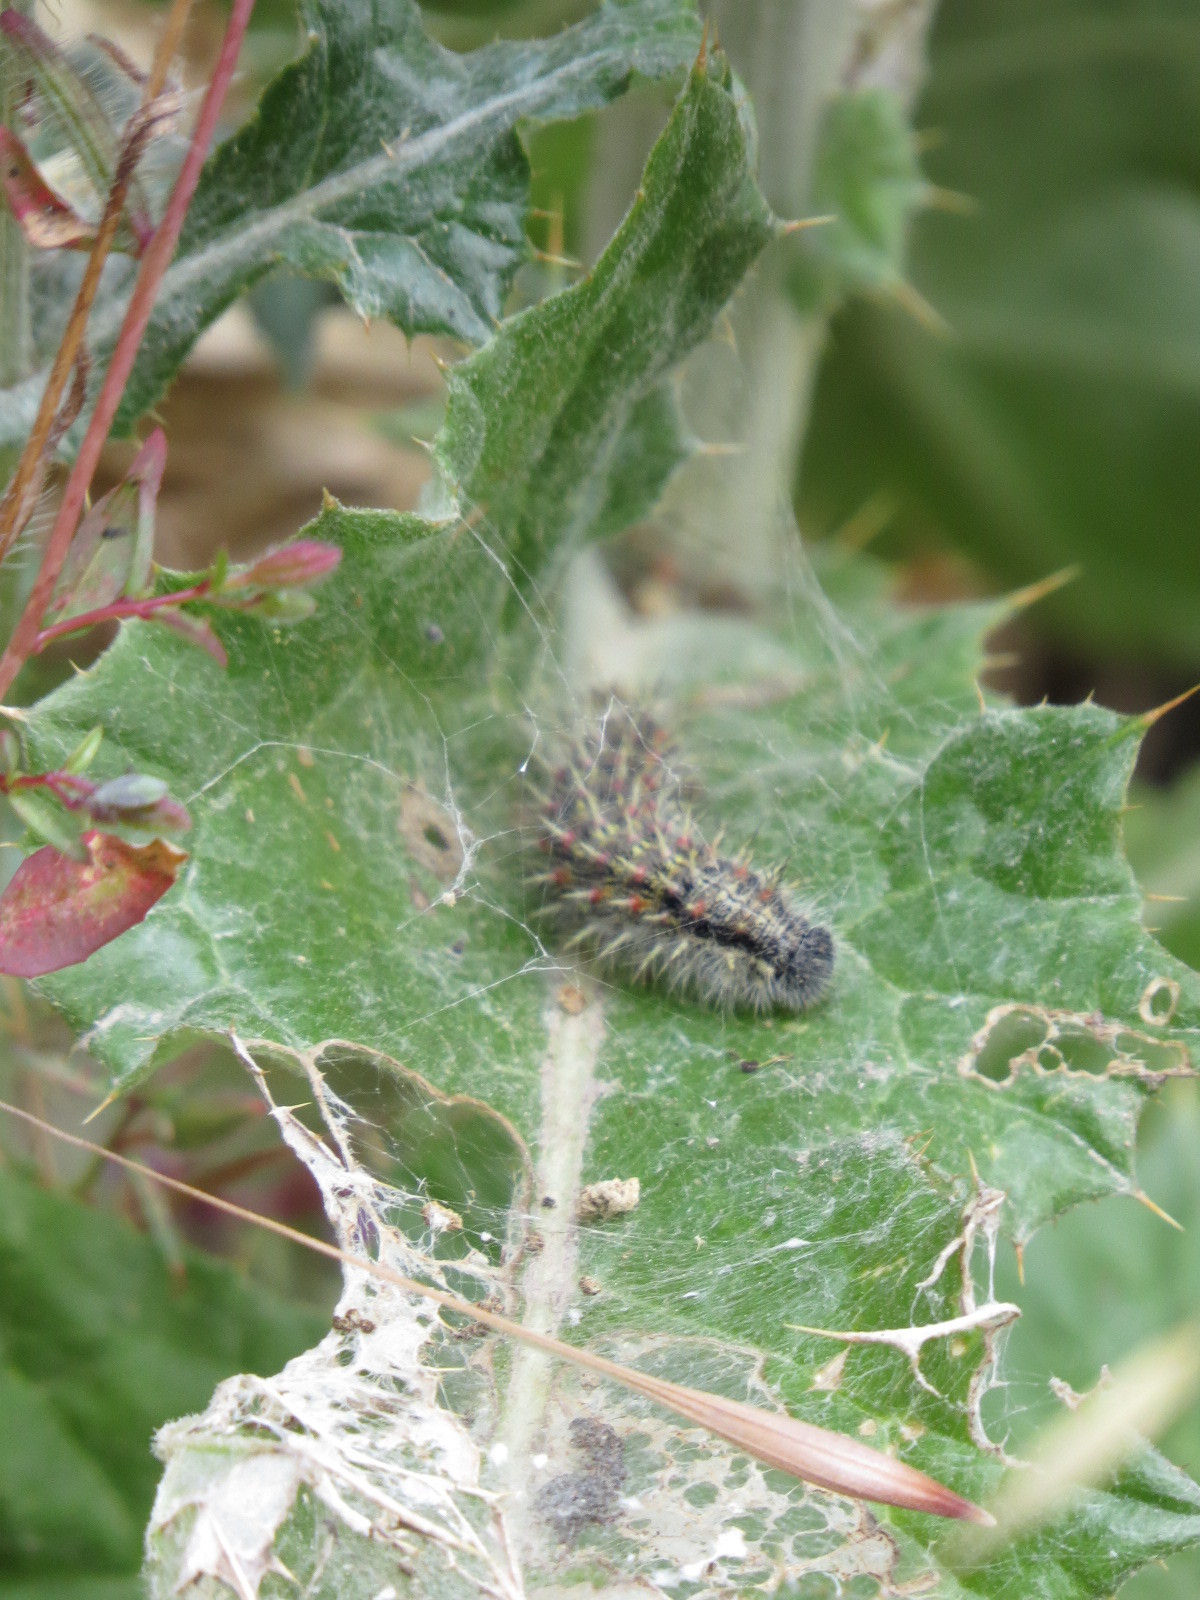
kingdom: Animalia
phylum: Arthropoda
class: Insecta
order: Lepidoptera
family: Nymphalidae
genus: Vanessa
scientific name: Vanessa cardui
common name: Painted lady
